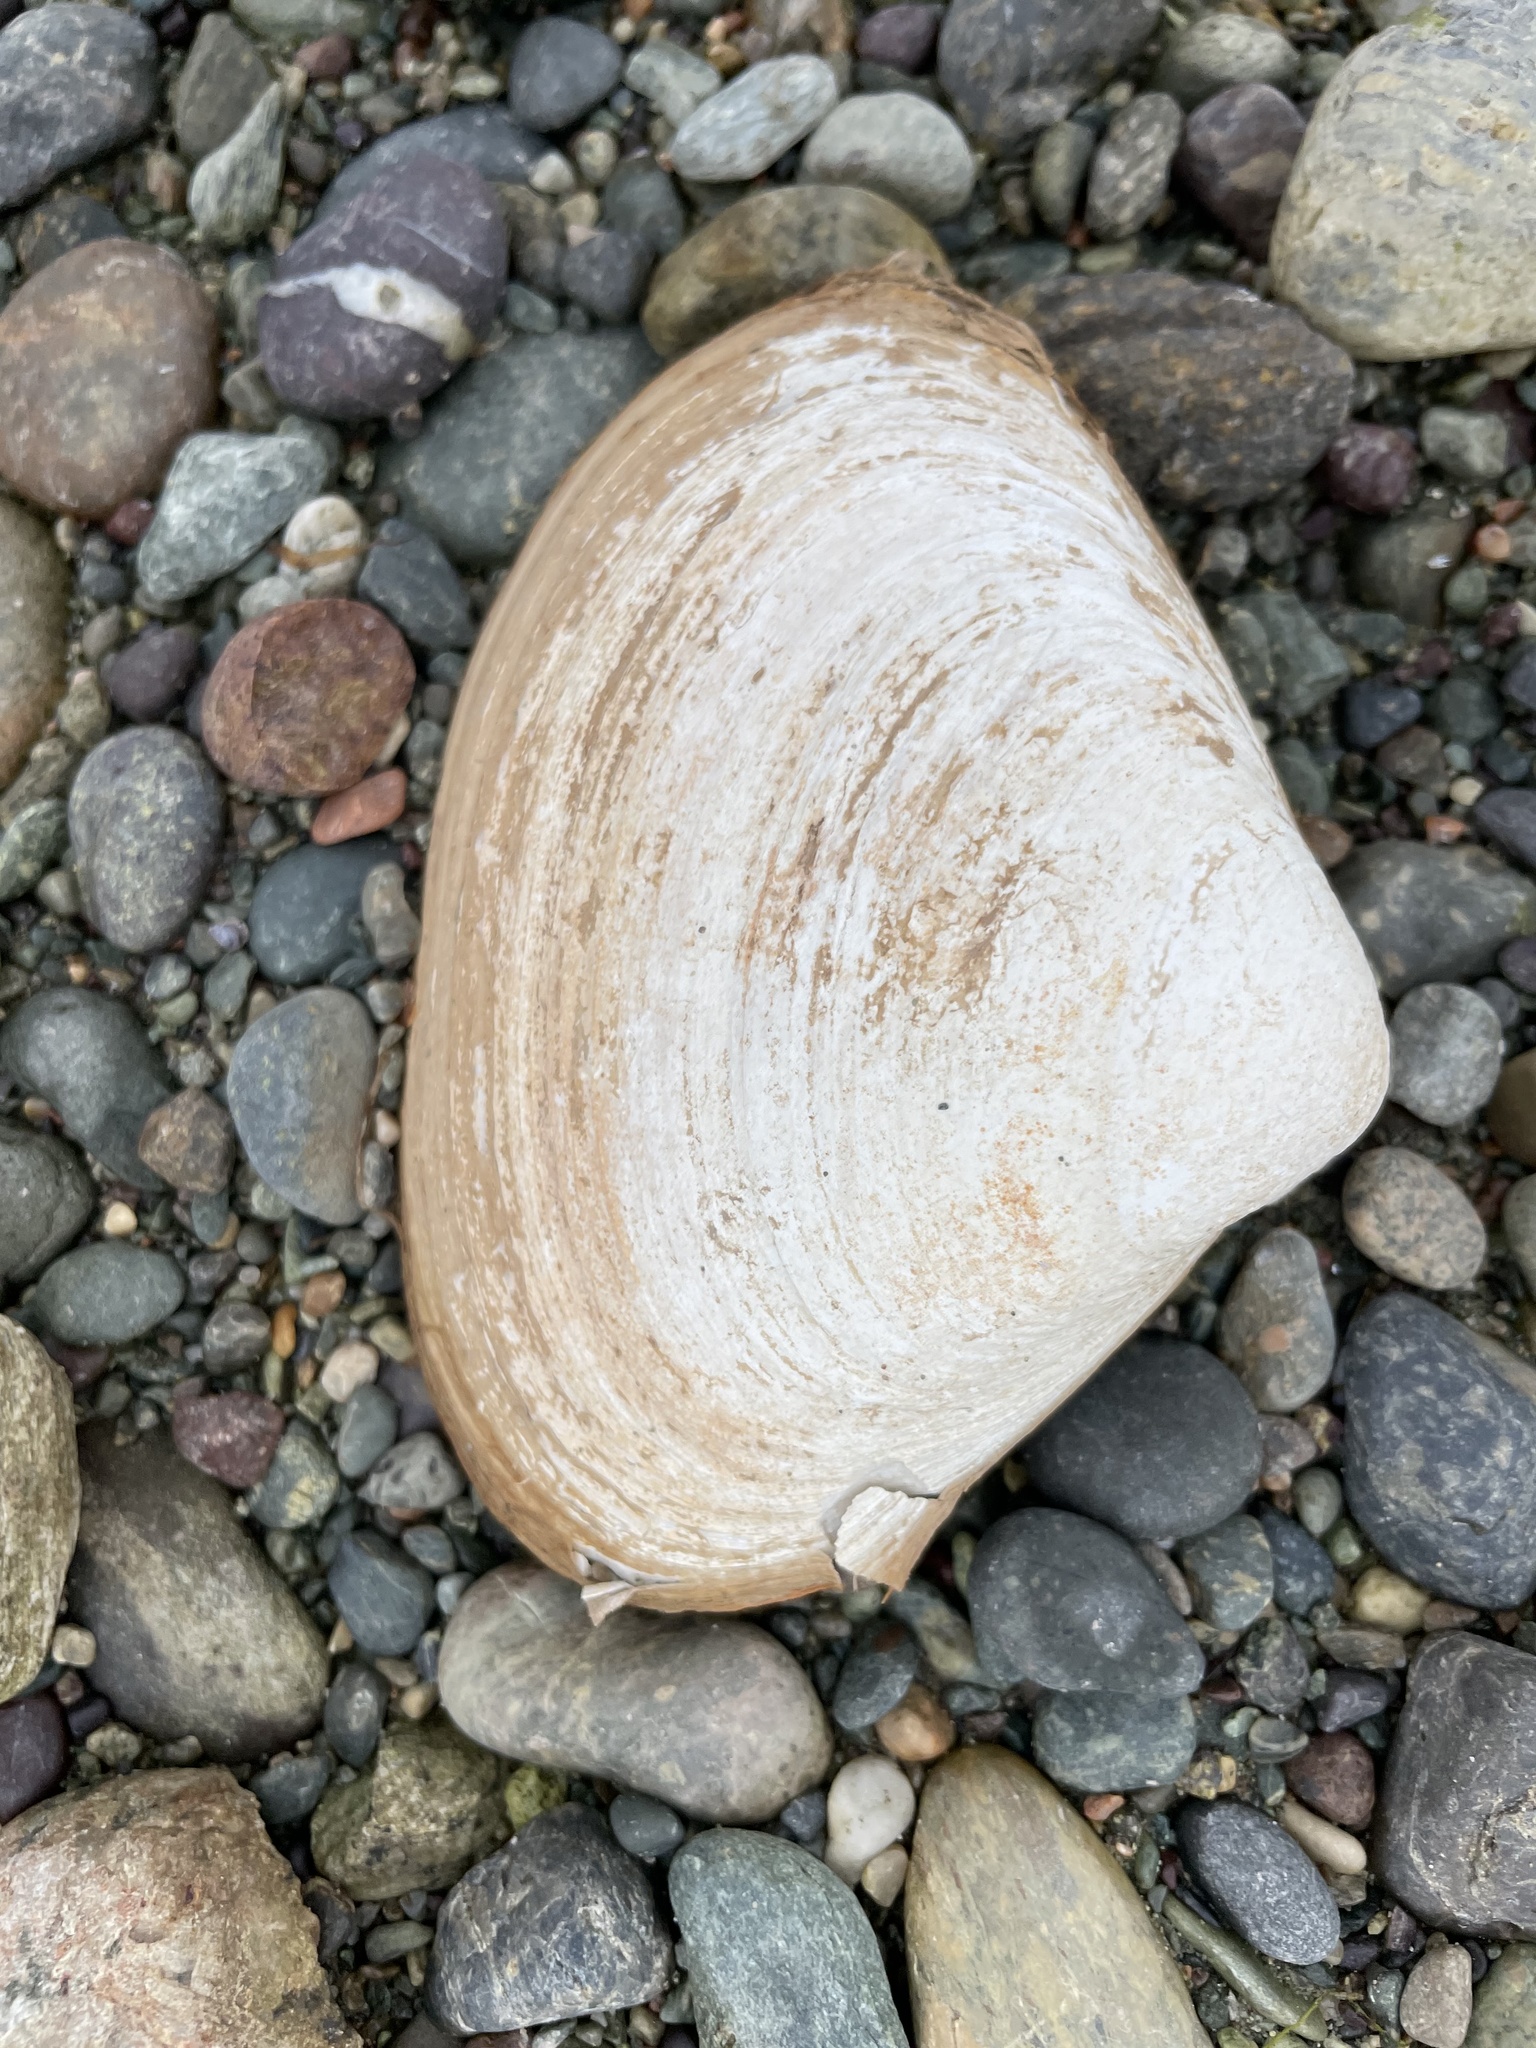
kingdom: Animalia
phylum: Mollusca
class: Bivalvia
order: Venerida
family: Mactridae
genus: Spisula
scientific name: Spisula solidissima
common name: Atlantic surf clam
